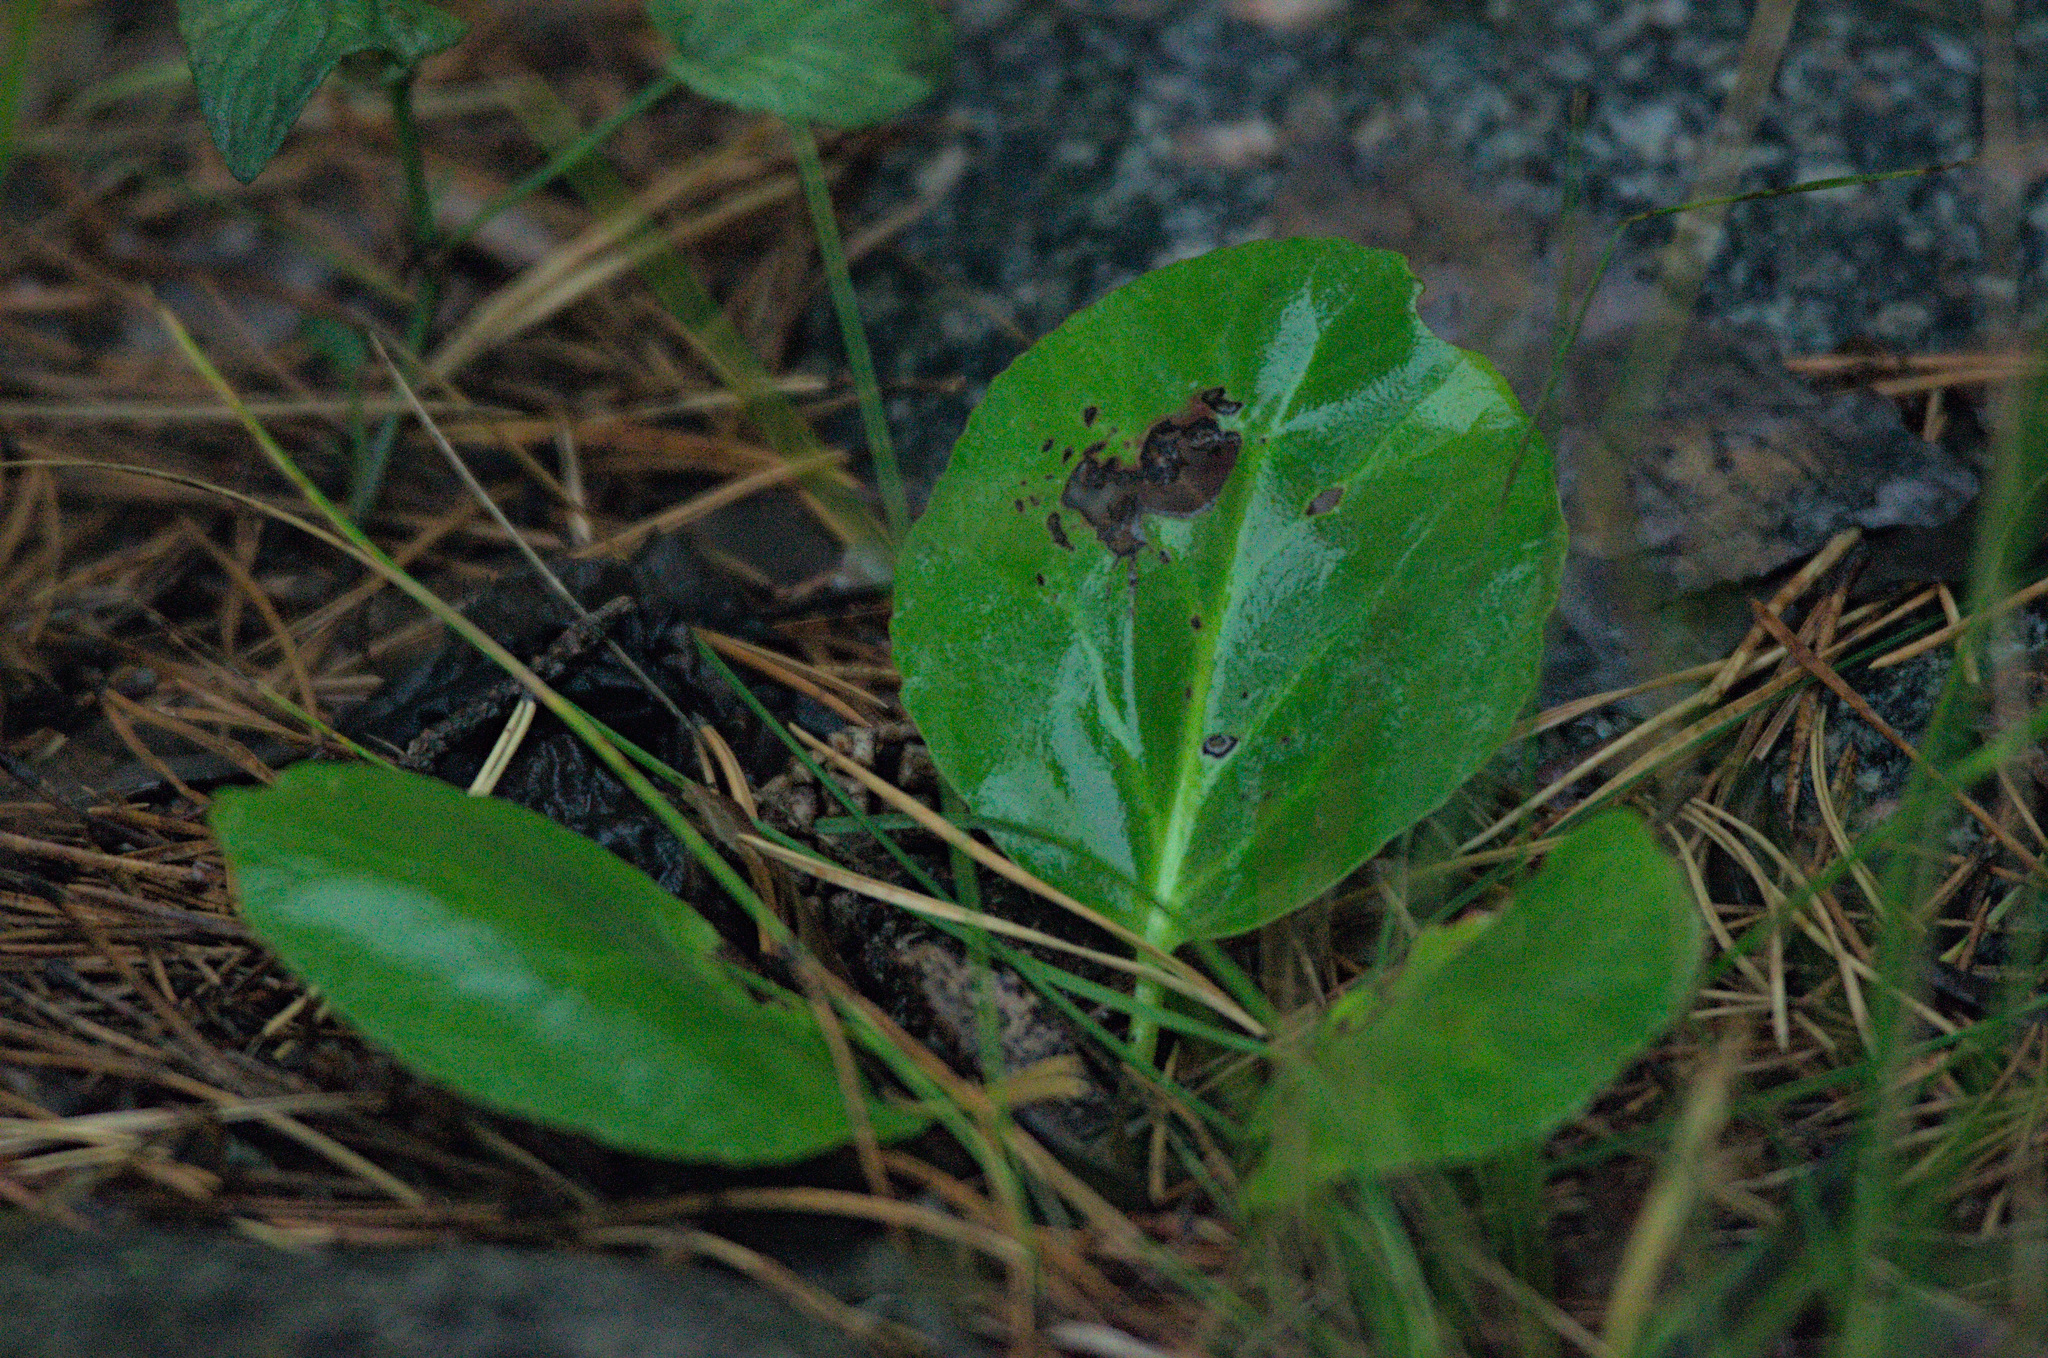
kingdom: Plantae
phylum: Tracheophyta
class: Magnoliopsida
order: Saxifragales
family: Saxifragaceae
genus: Bergenia
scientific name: Bergenia crassifolia
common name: Elephant-ears
